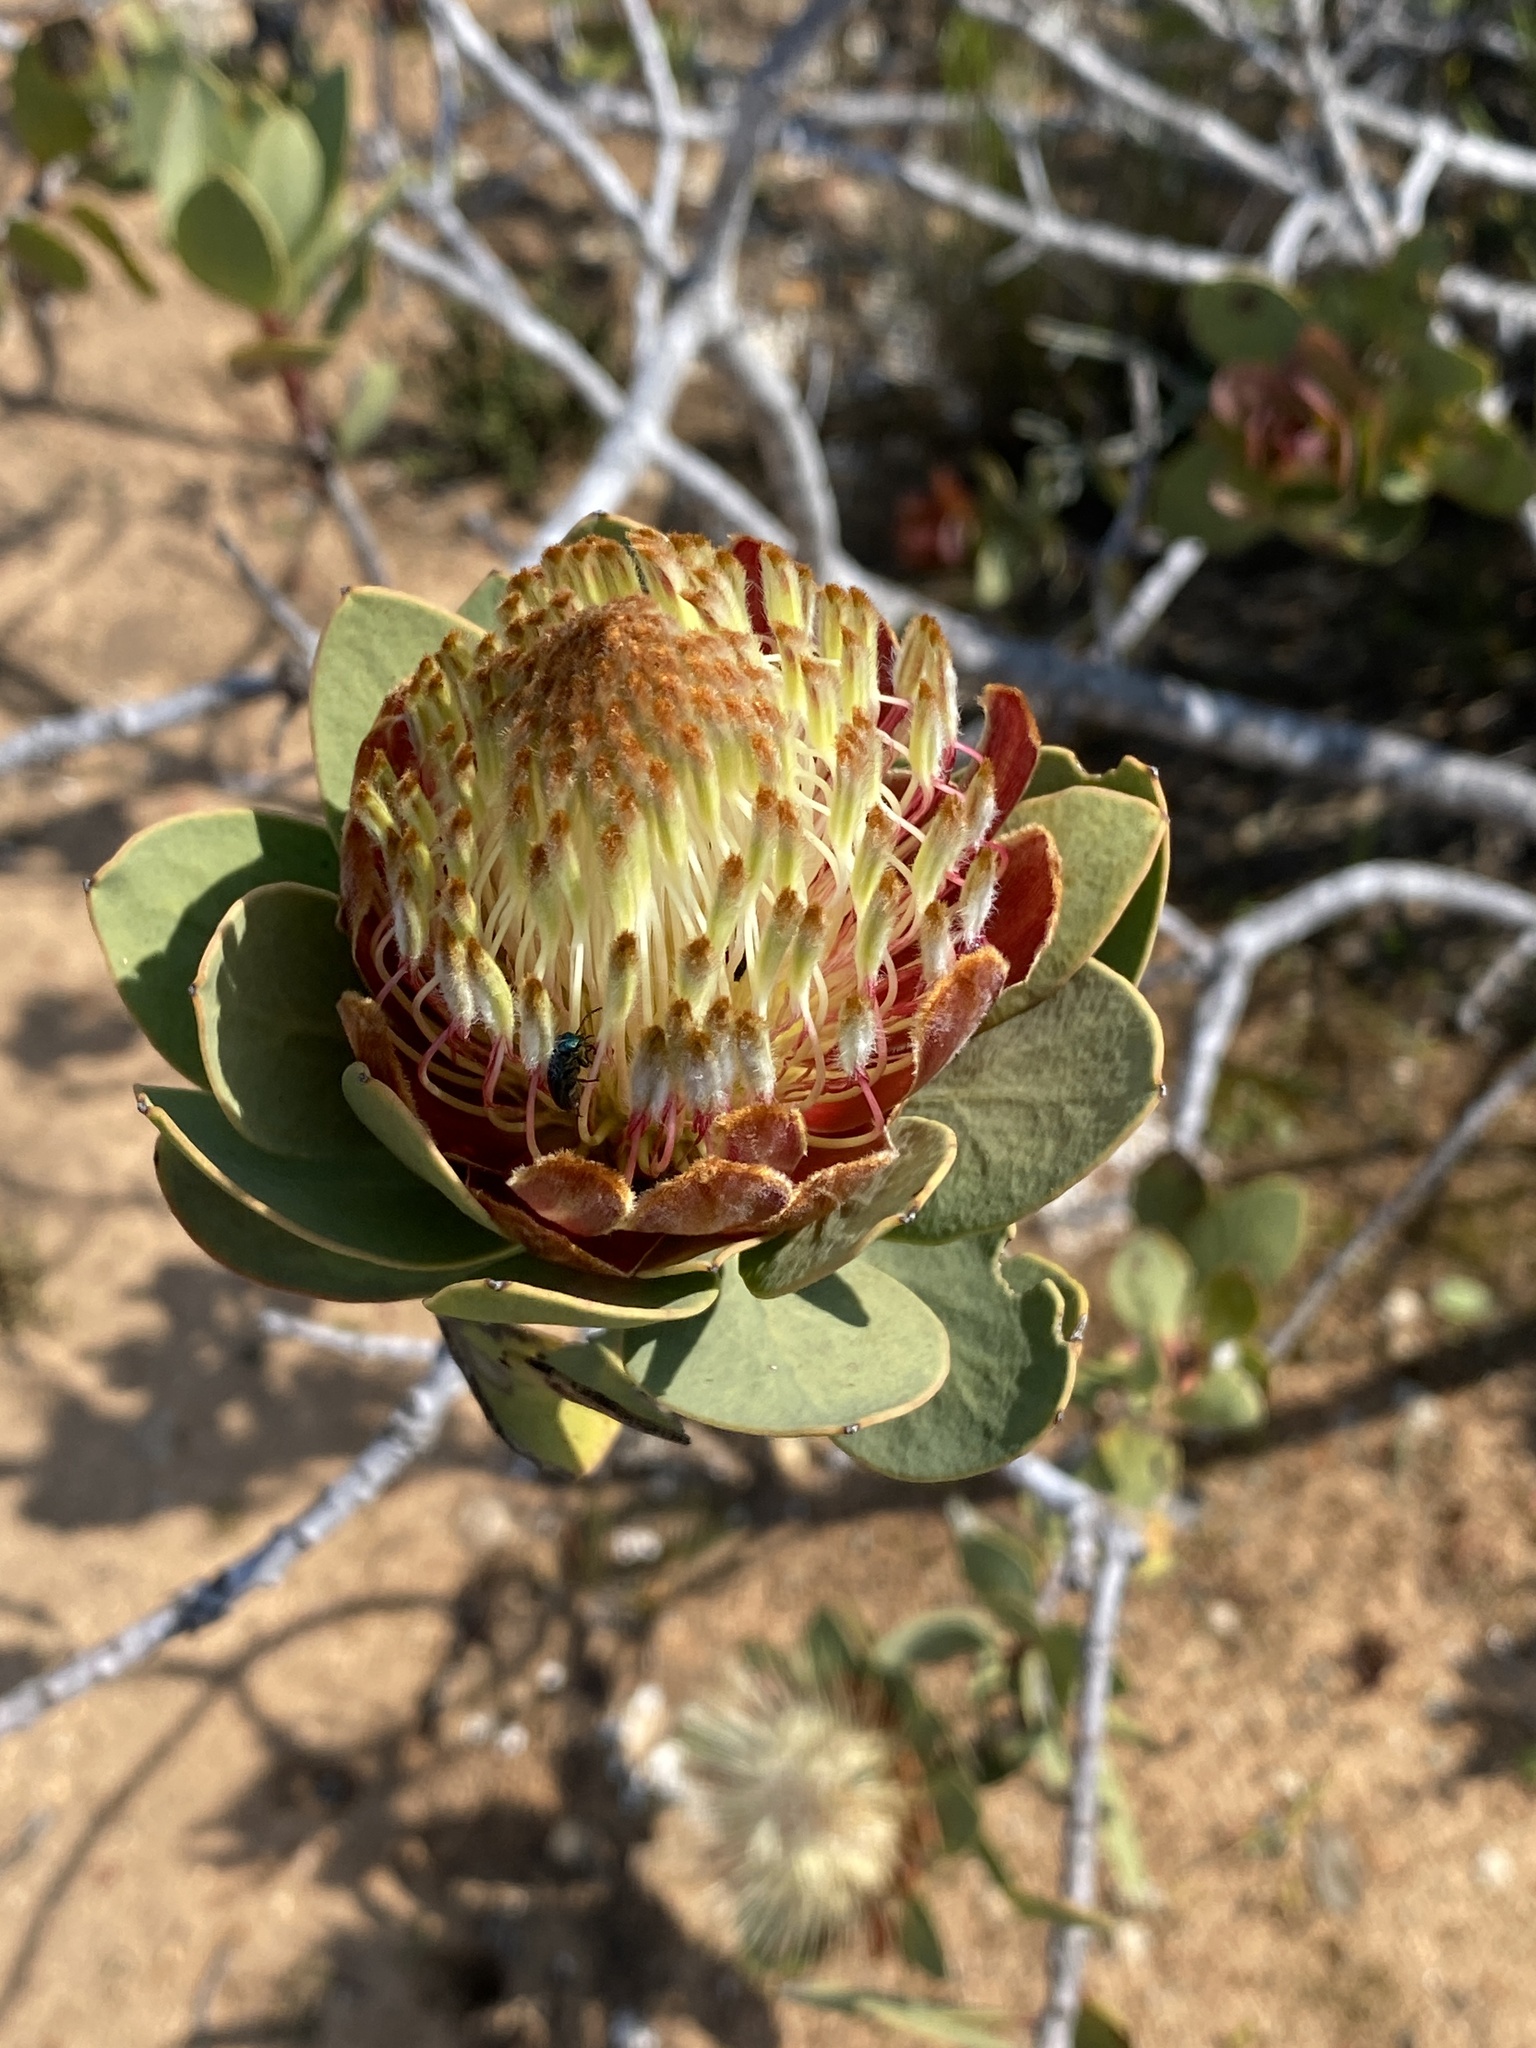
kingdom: Plantae
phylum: Tracheophyta
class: Magnoliopsida
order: Proteales
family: Proteaceae
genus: Protea
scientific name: Protea glabra
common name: Chestnut sugarbush
